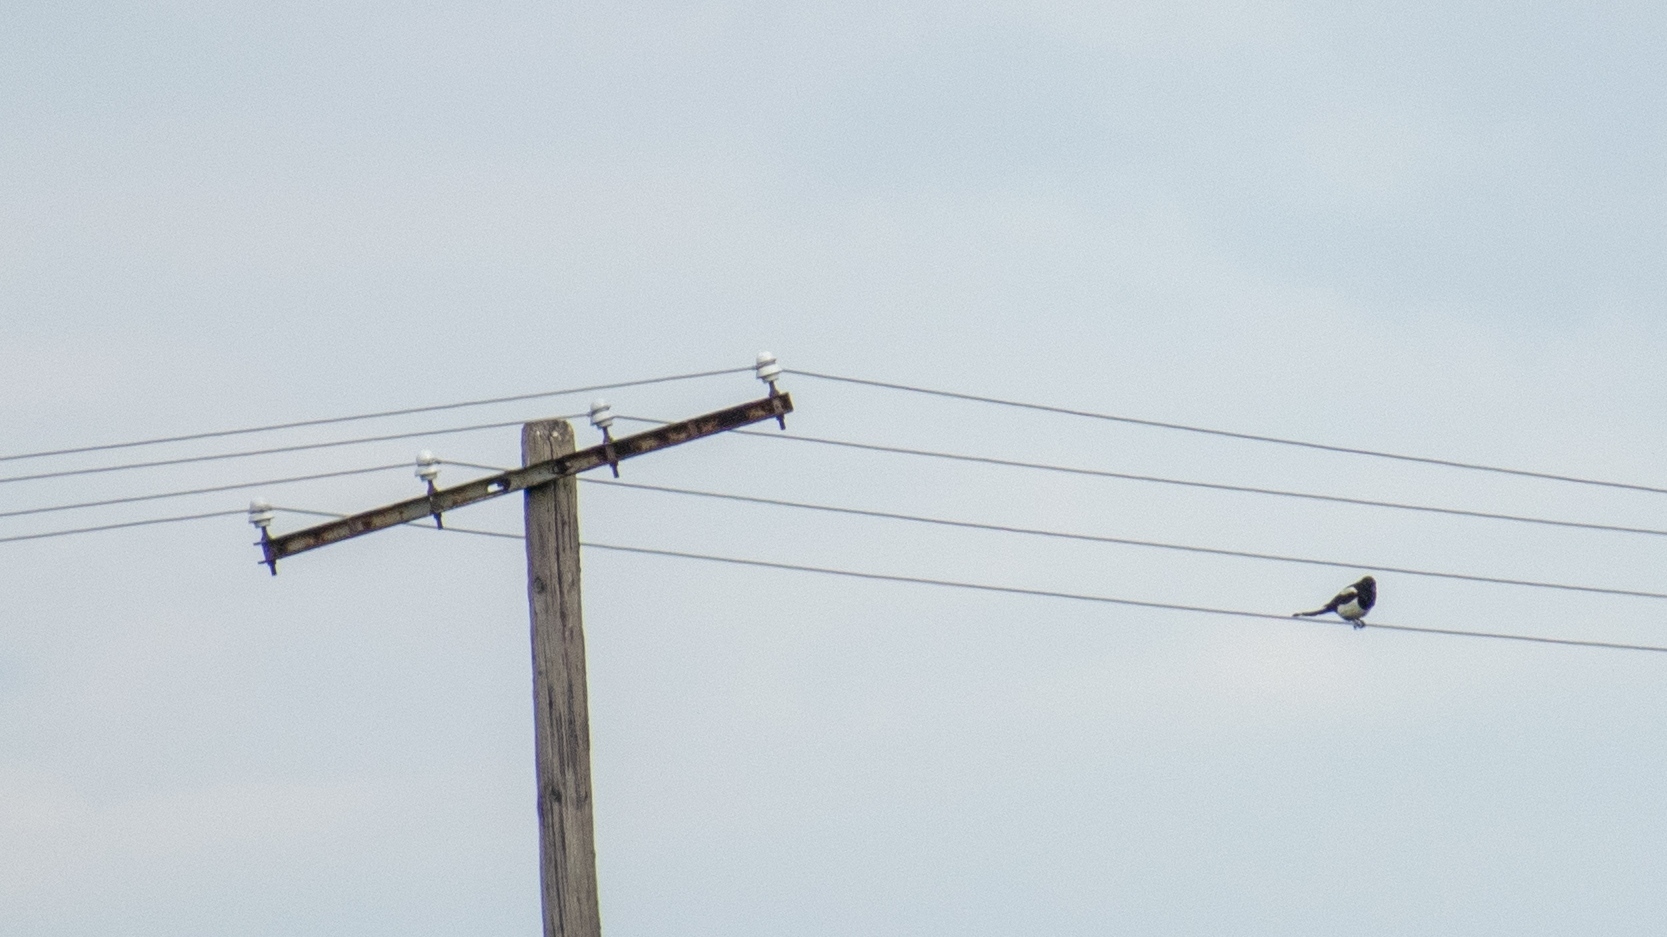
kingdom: Animalia
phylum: Chordata
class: Aves
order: Passeriformes
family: Corvidae
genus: Pica
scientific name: Pica pica
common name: Eurasian magpie
